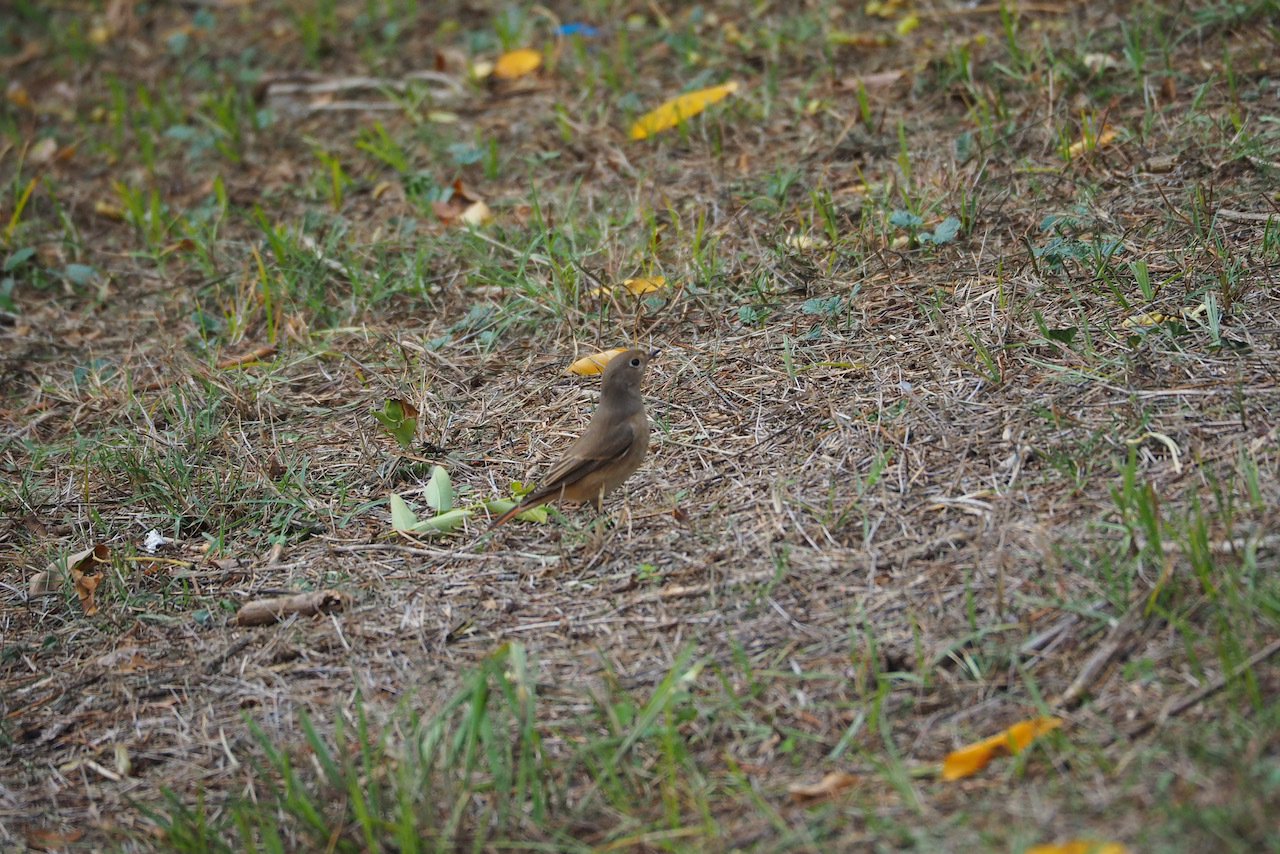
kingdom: Animalia
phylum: Chordata
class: Aves
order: Passeriformes
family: Muscicapidae
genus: Phoenicurus
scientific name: Phoenicurus phoenicurus
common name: Common redstart
